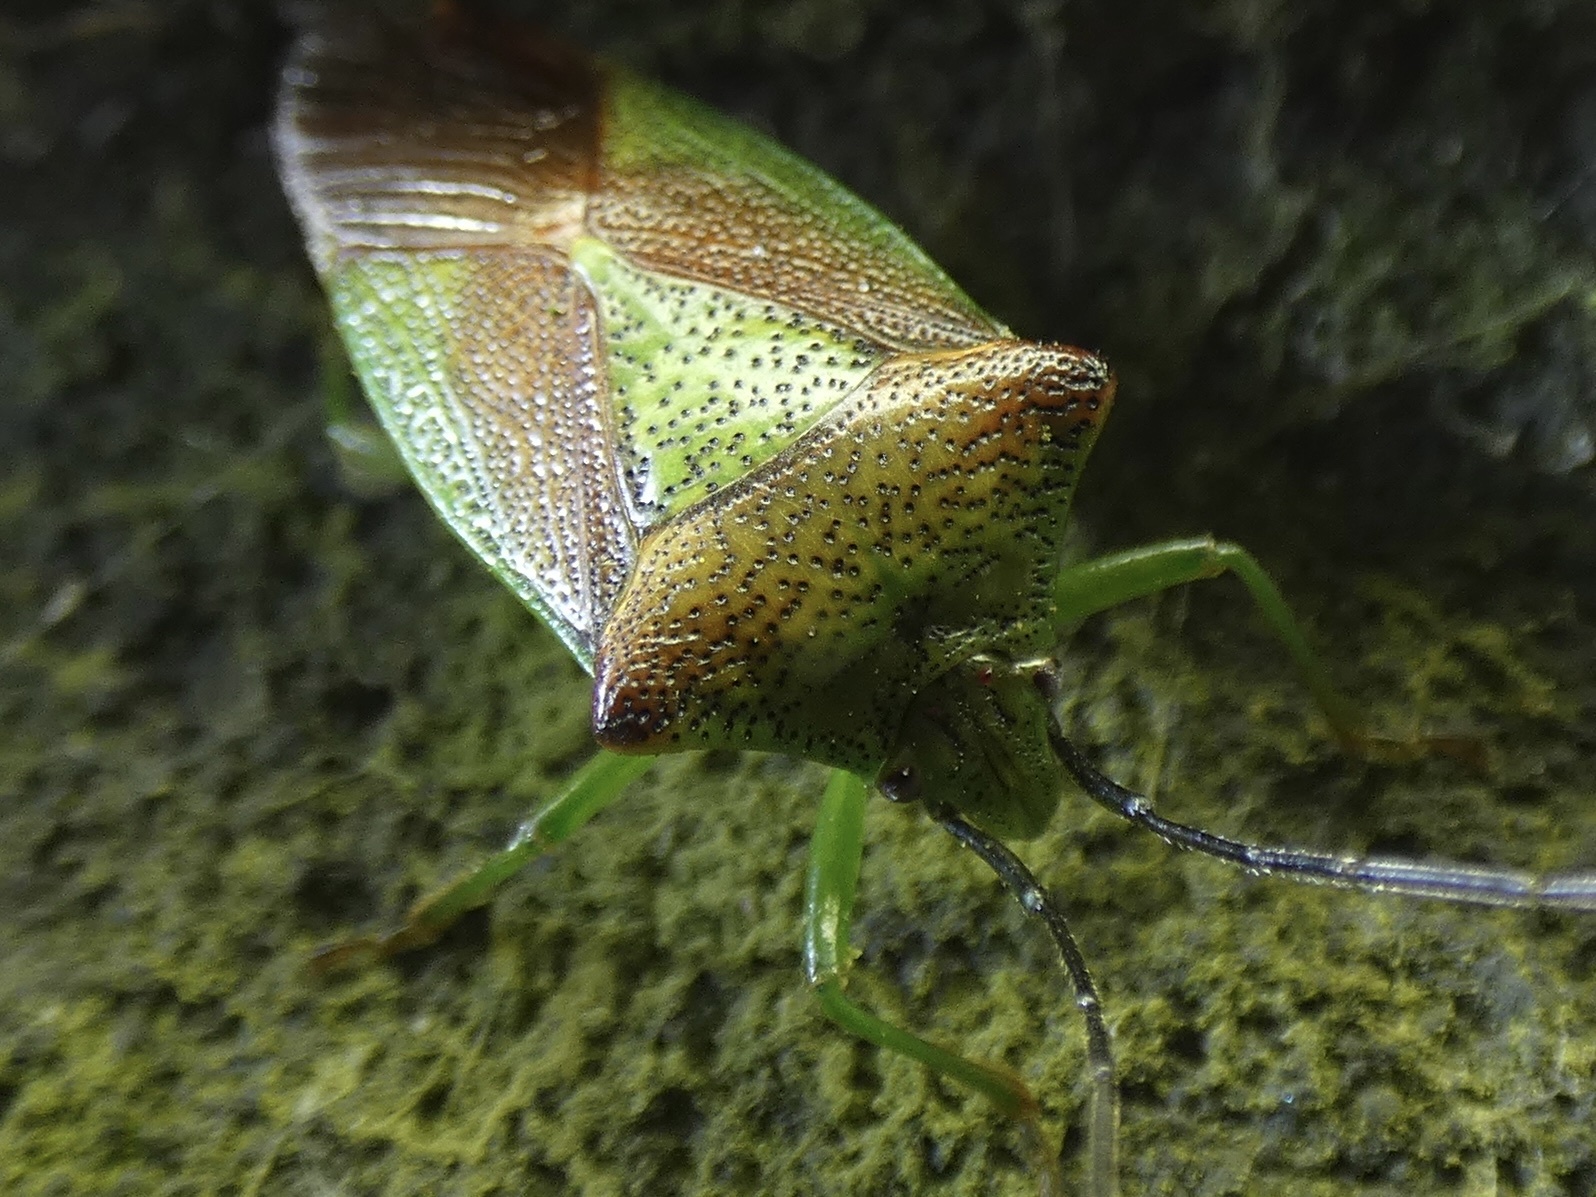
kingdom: Animalia
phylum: Arthropoda
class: Insecta
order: Hemiptera
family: Acanthosomatidae
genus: Acanthosoma
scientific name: Acanthosoma haemorrhoidale
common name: Hawthorn shieldbug
